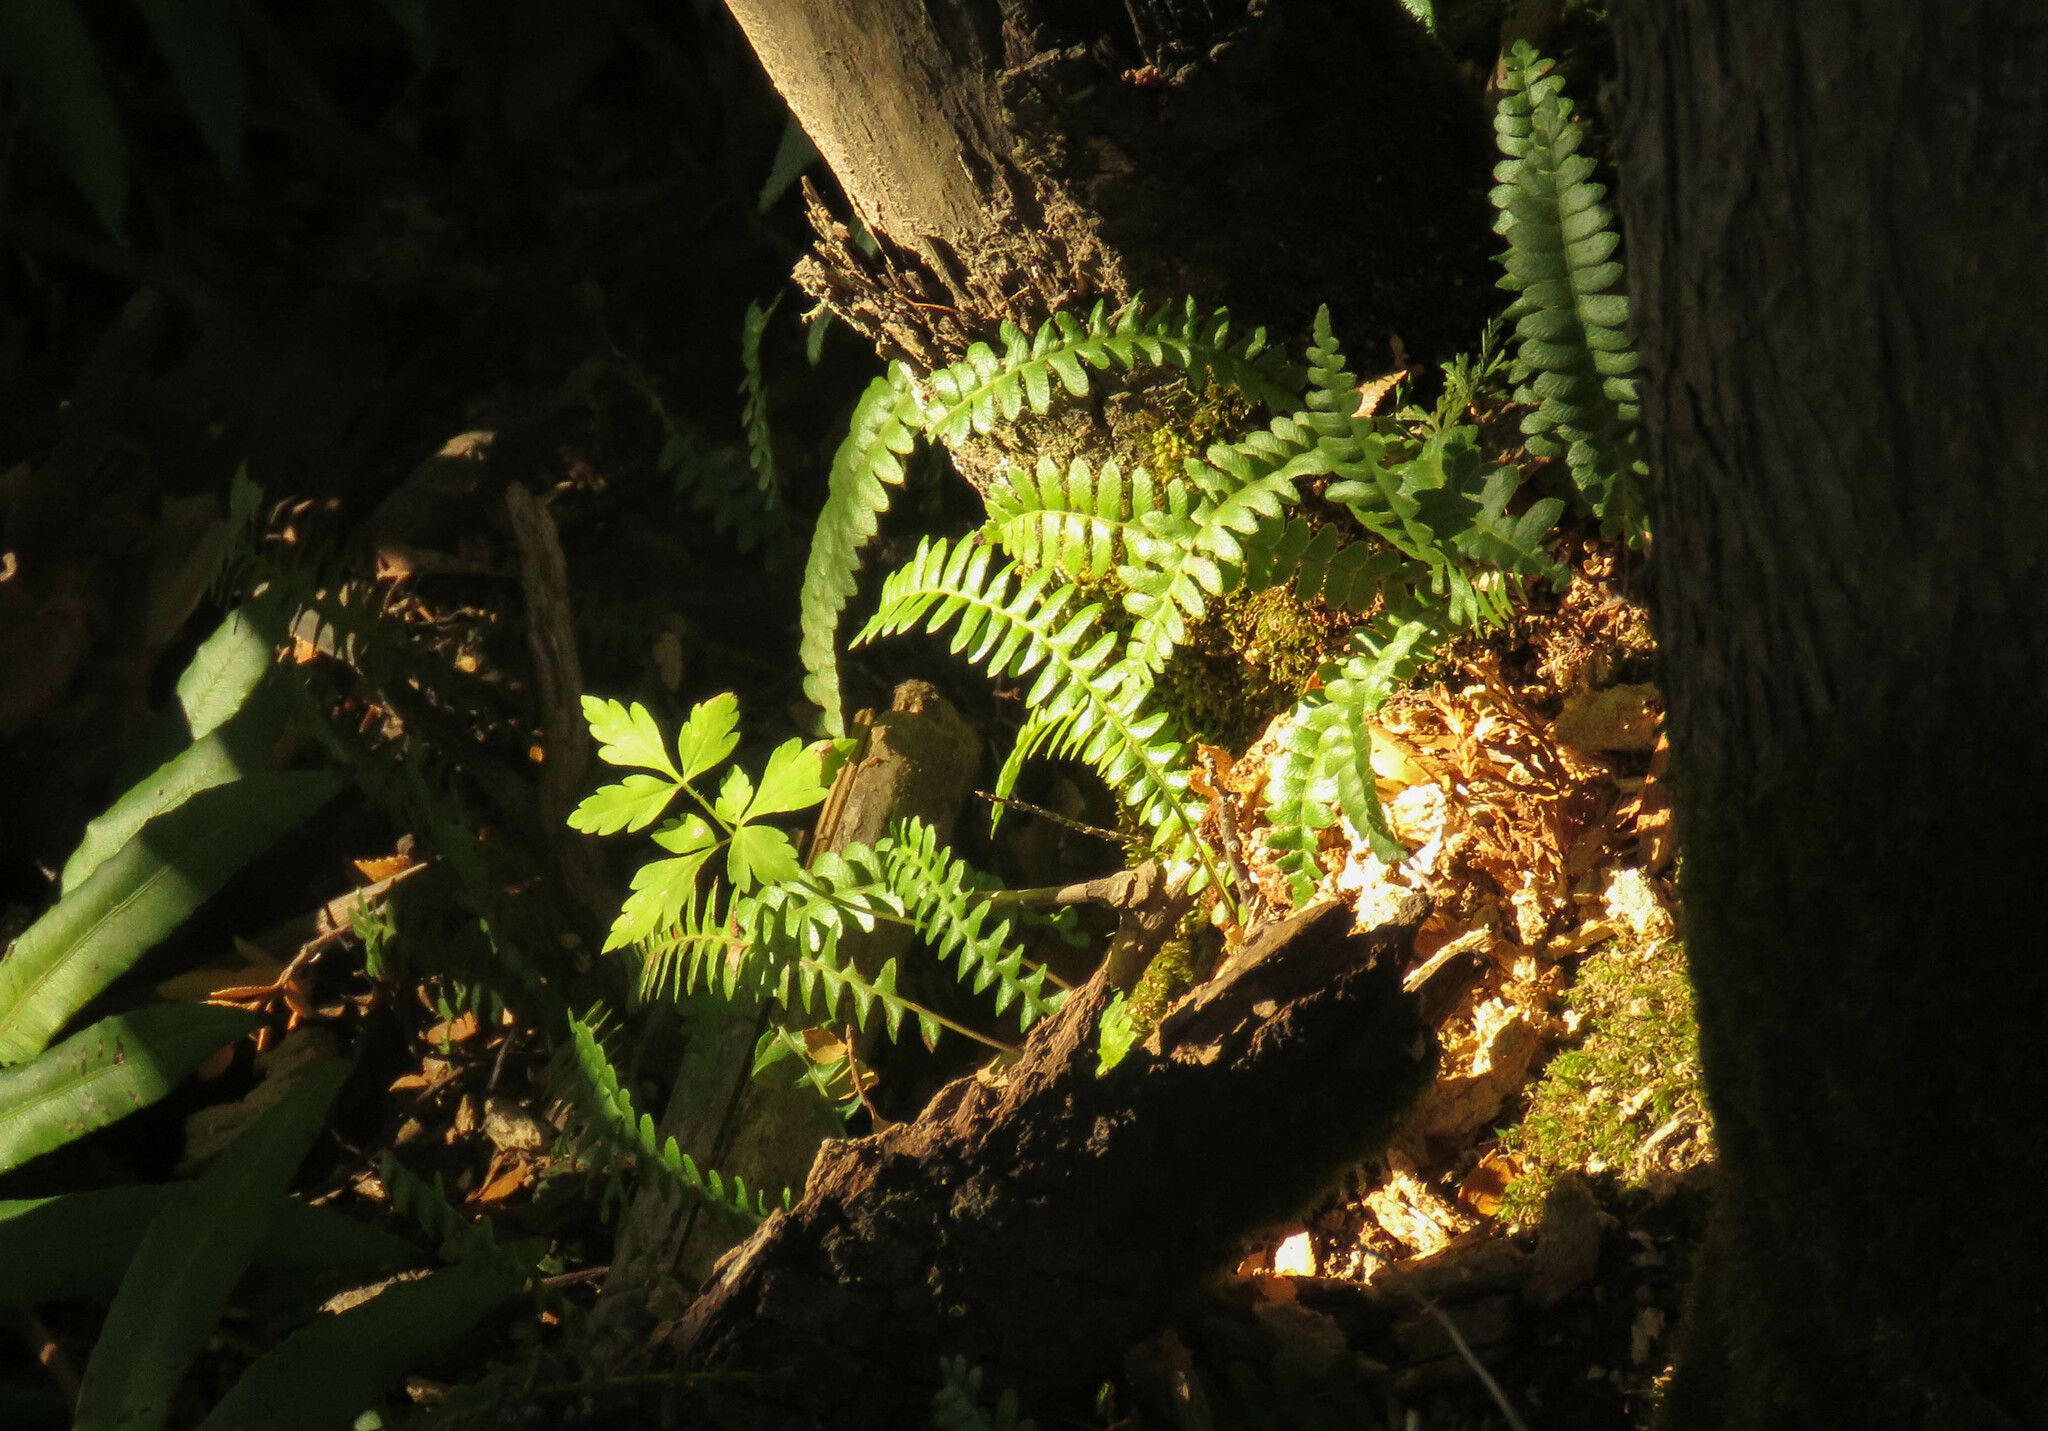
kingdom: Plantae
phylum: Tracheophyta
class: Polypodiopsida
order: Polypodiales
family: Blechnaceae
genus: Austroblechnum
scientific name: Austroblechnum penna-marina
